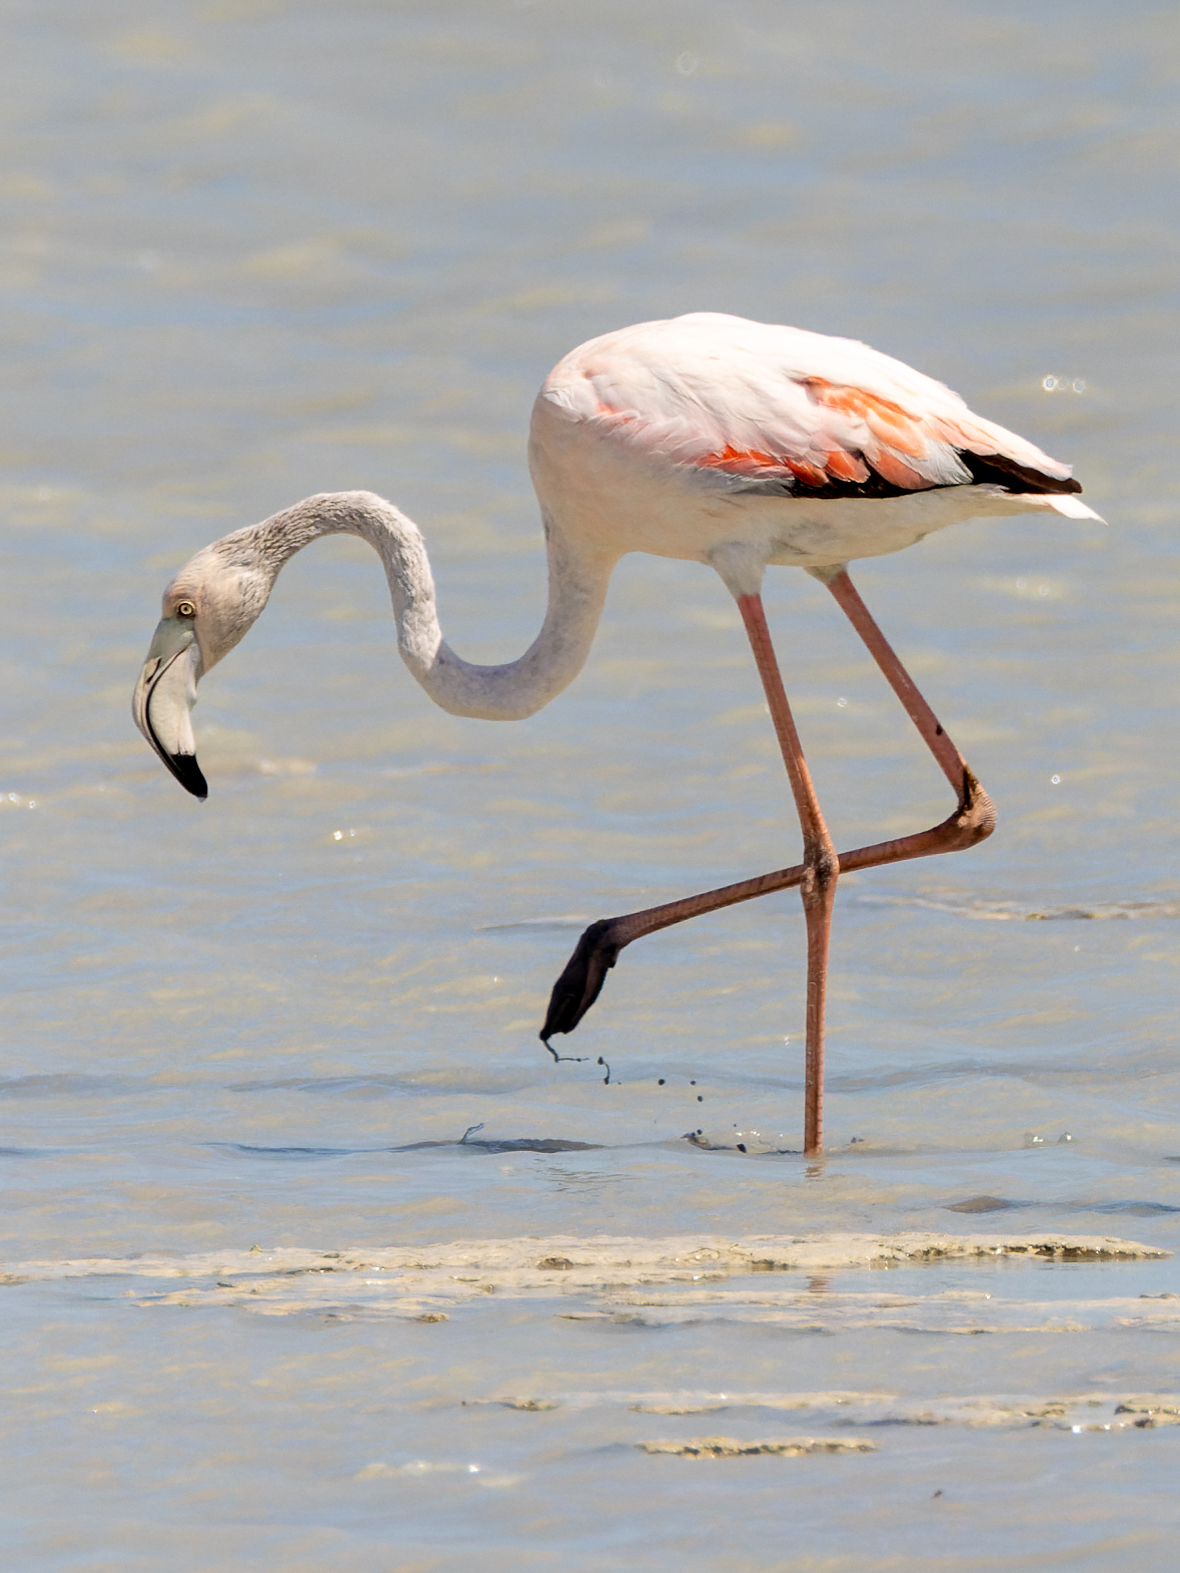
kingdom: Animalia
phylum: Chordata
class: Aves
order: Phoenicopteriformes
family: Phoenicopteridae
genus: Phoenicopterus
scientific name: Phoenicopterus roseus
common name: Greater flamingo
